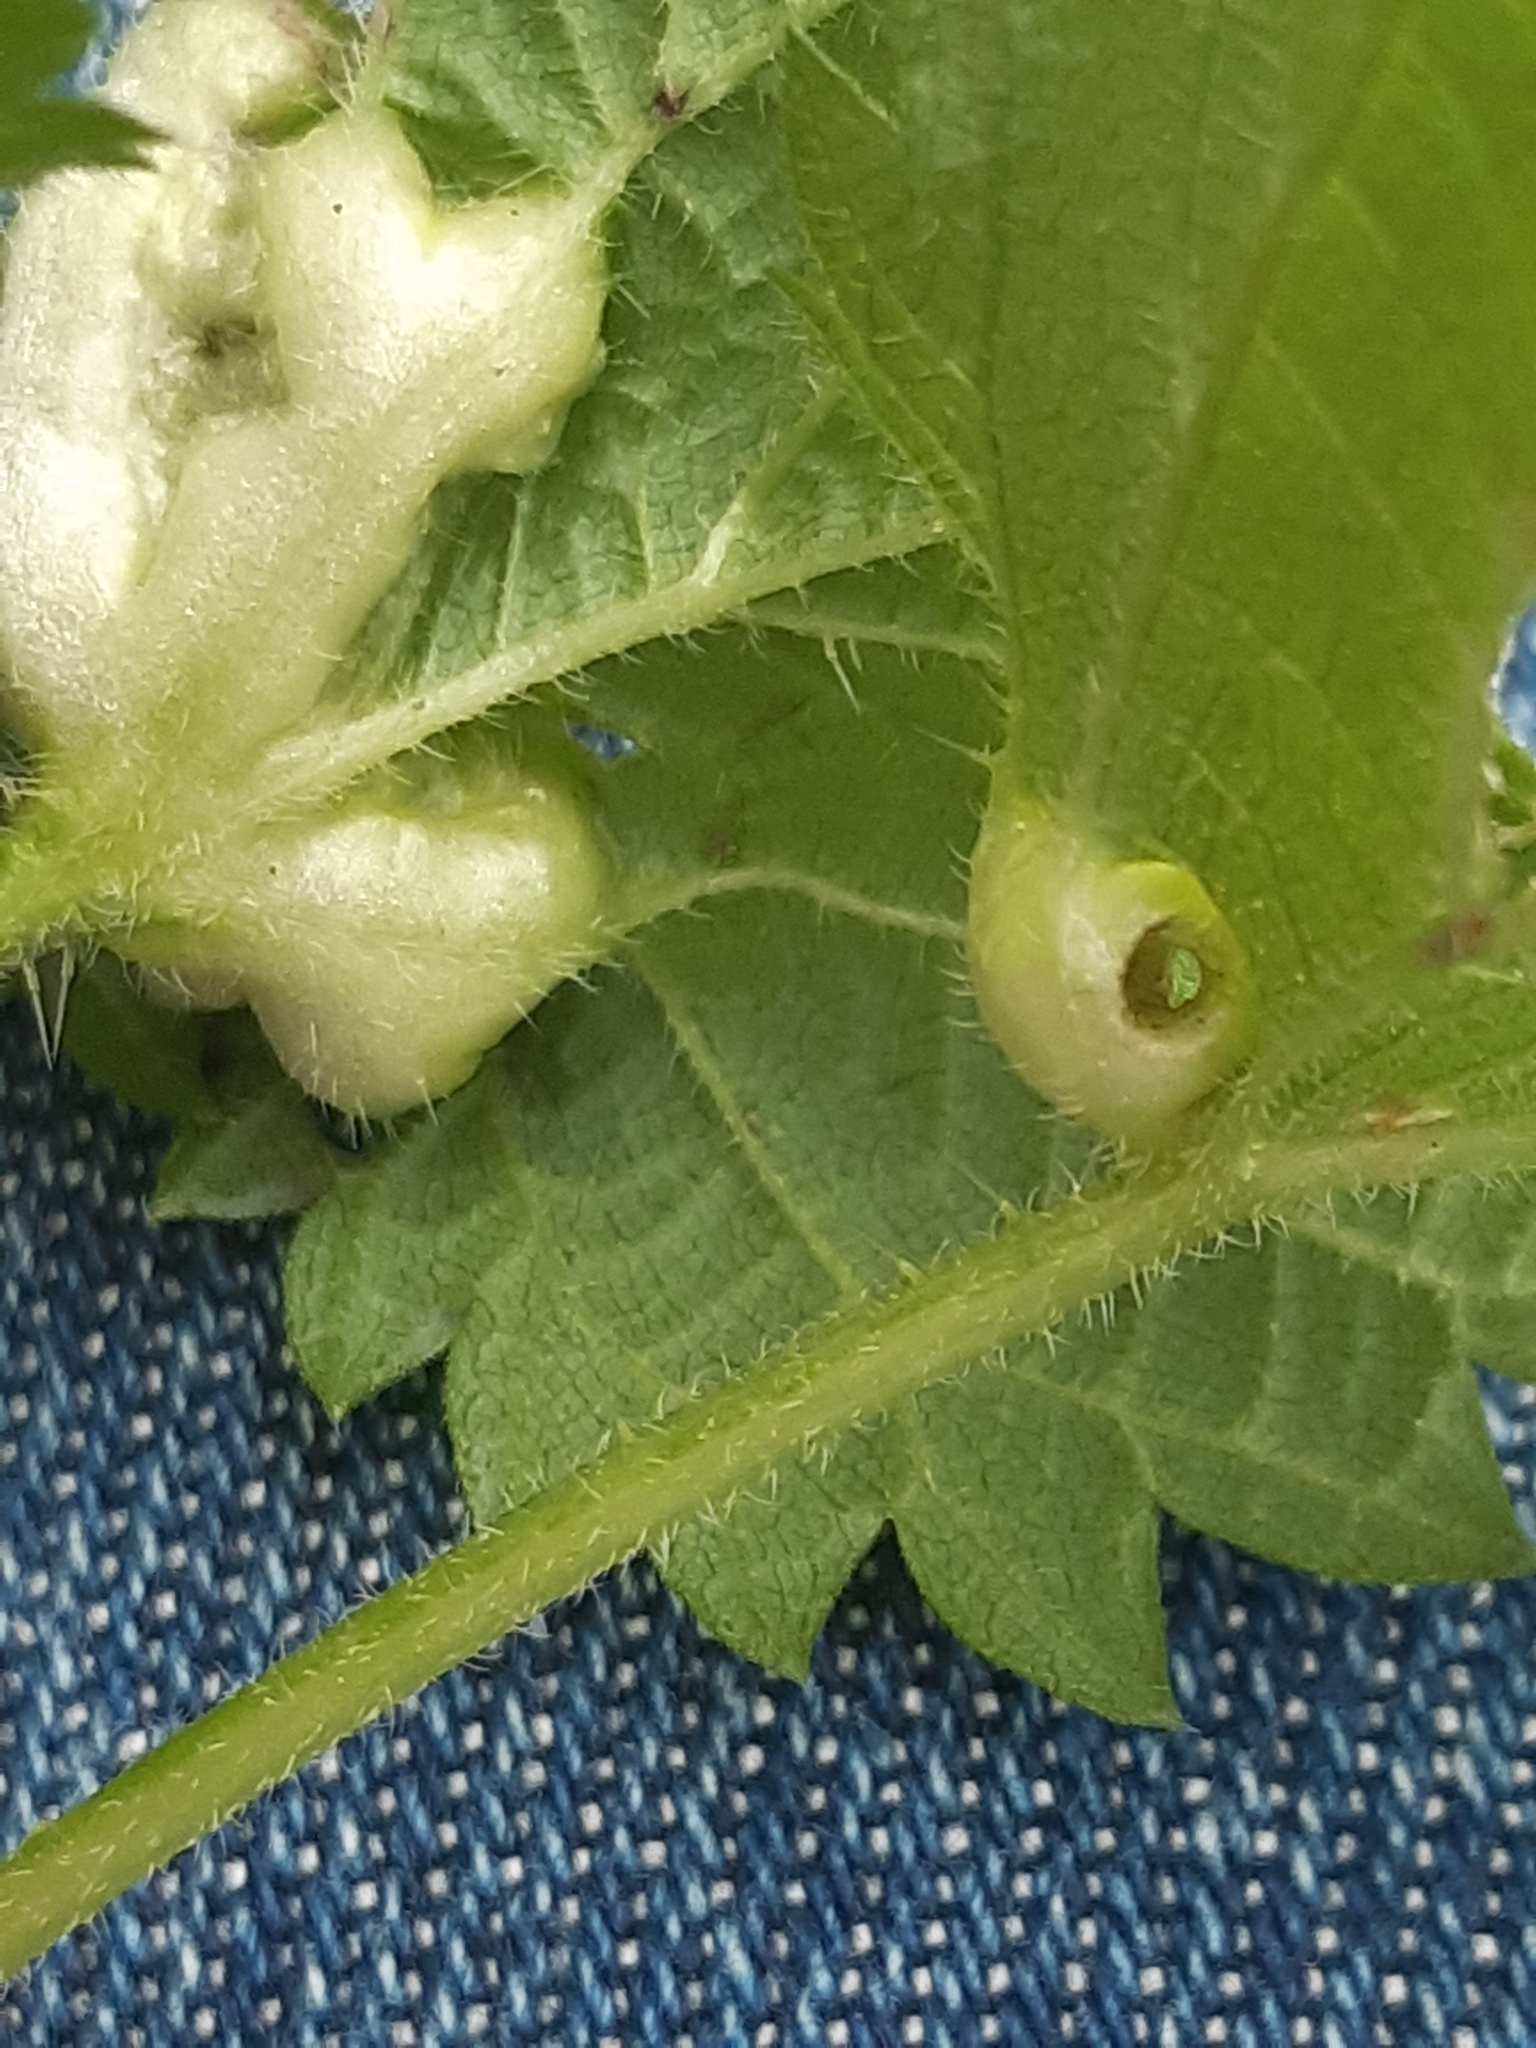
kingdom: Animalia
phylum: Arthropoda
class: Insecta
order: Diptera
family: Cecidomyiidae
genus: Dasineura
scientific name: Dasineura urticae
